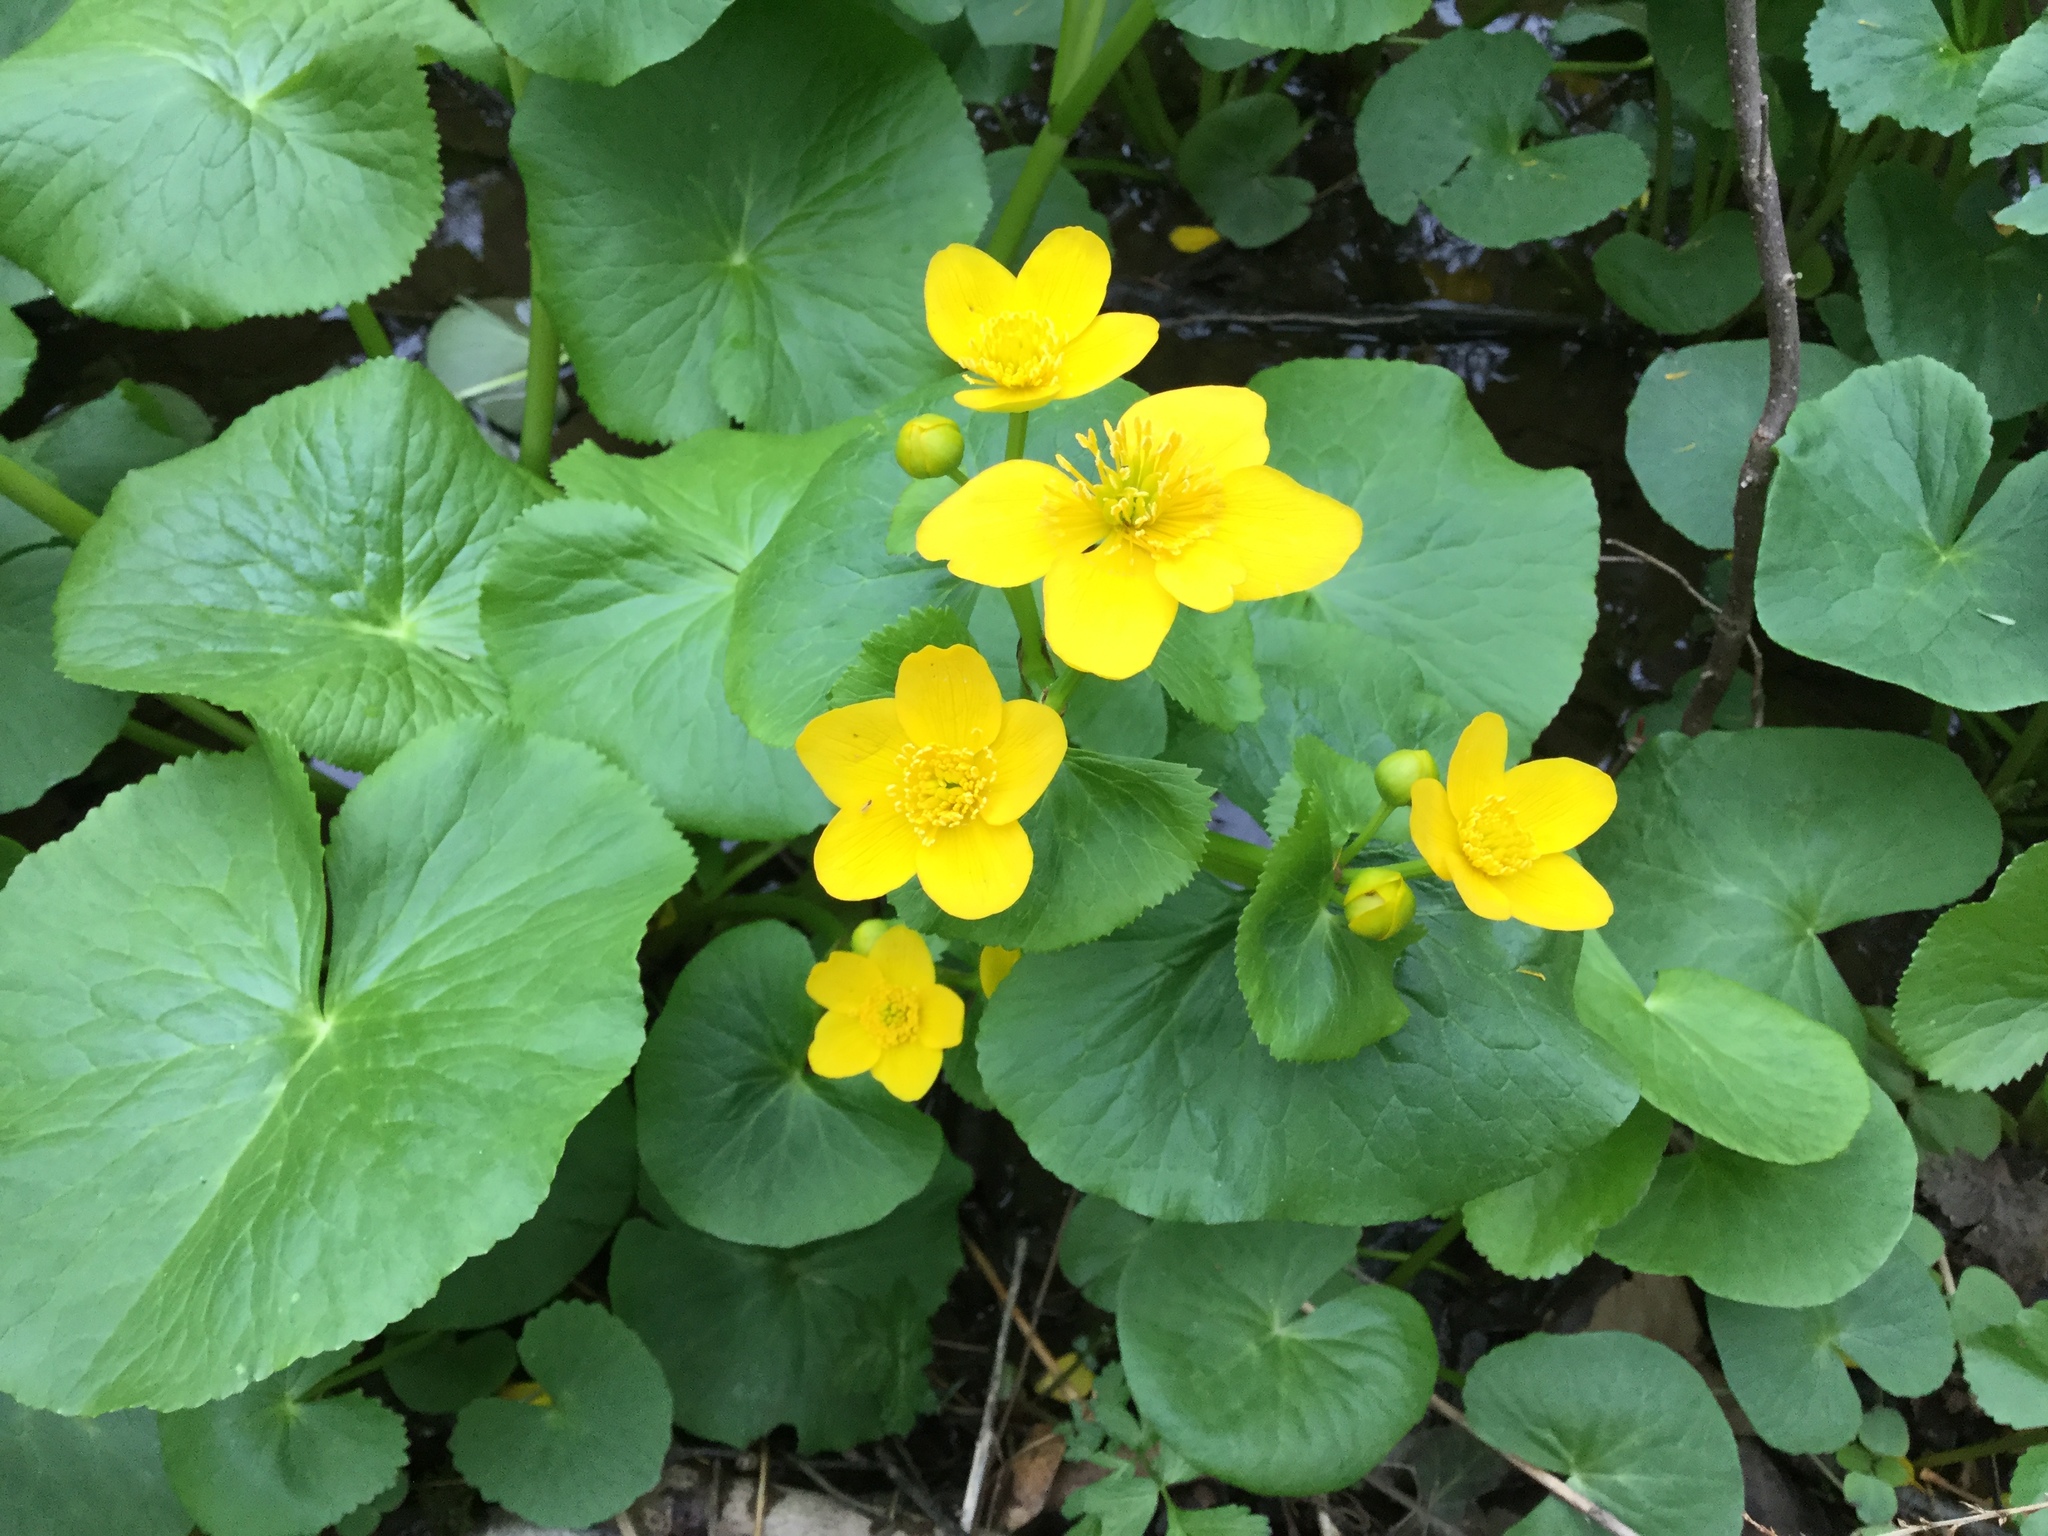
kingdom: Plantae
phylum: Tracheophyta
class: Magnoliopsida
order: Ranunculales
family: Ranunculaceae
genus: Caltha
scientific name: Caltha palustris
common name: Marsh marigold
